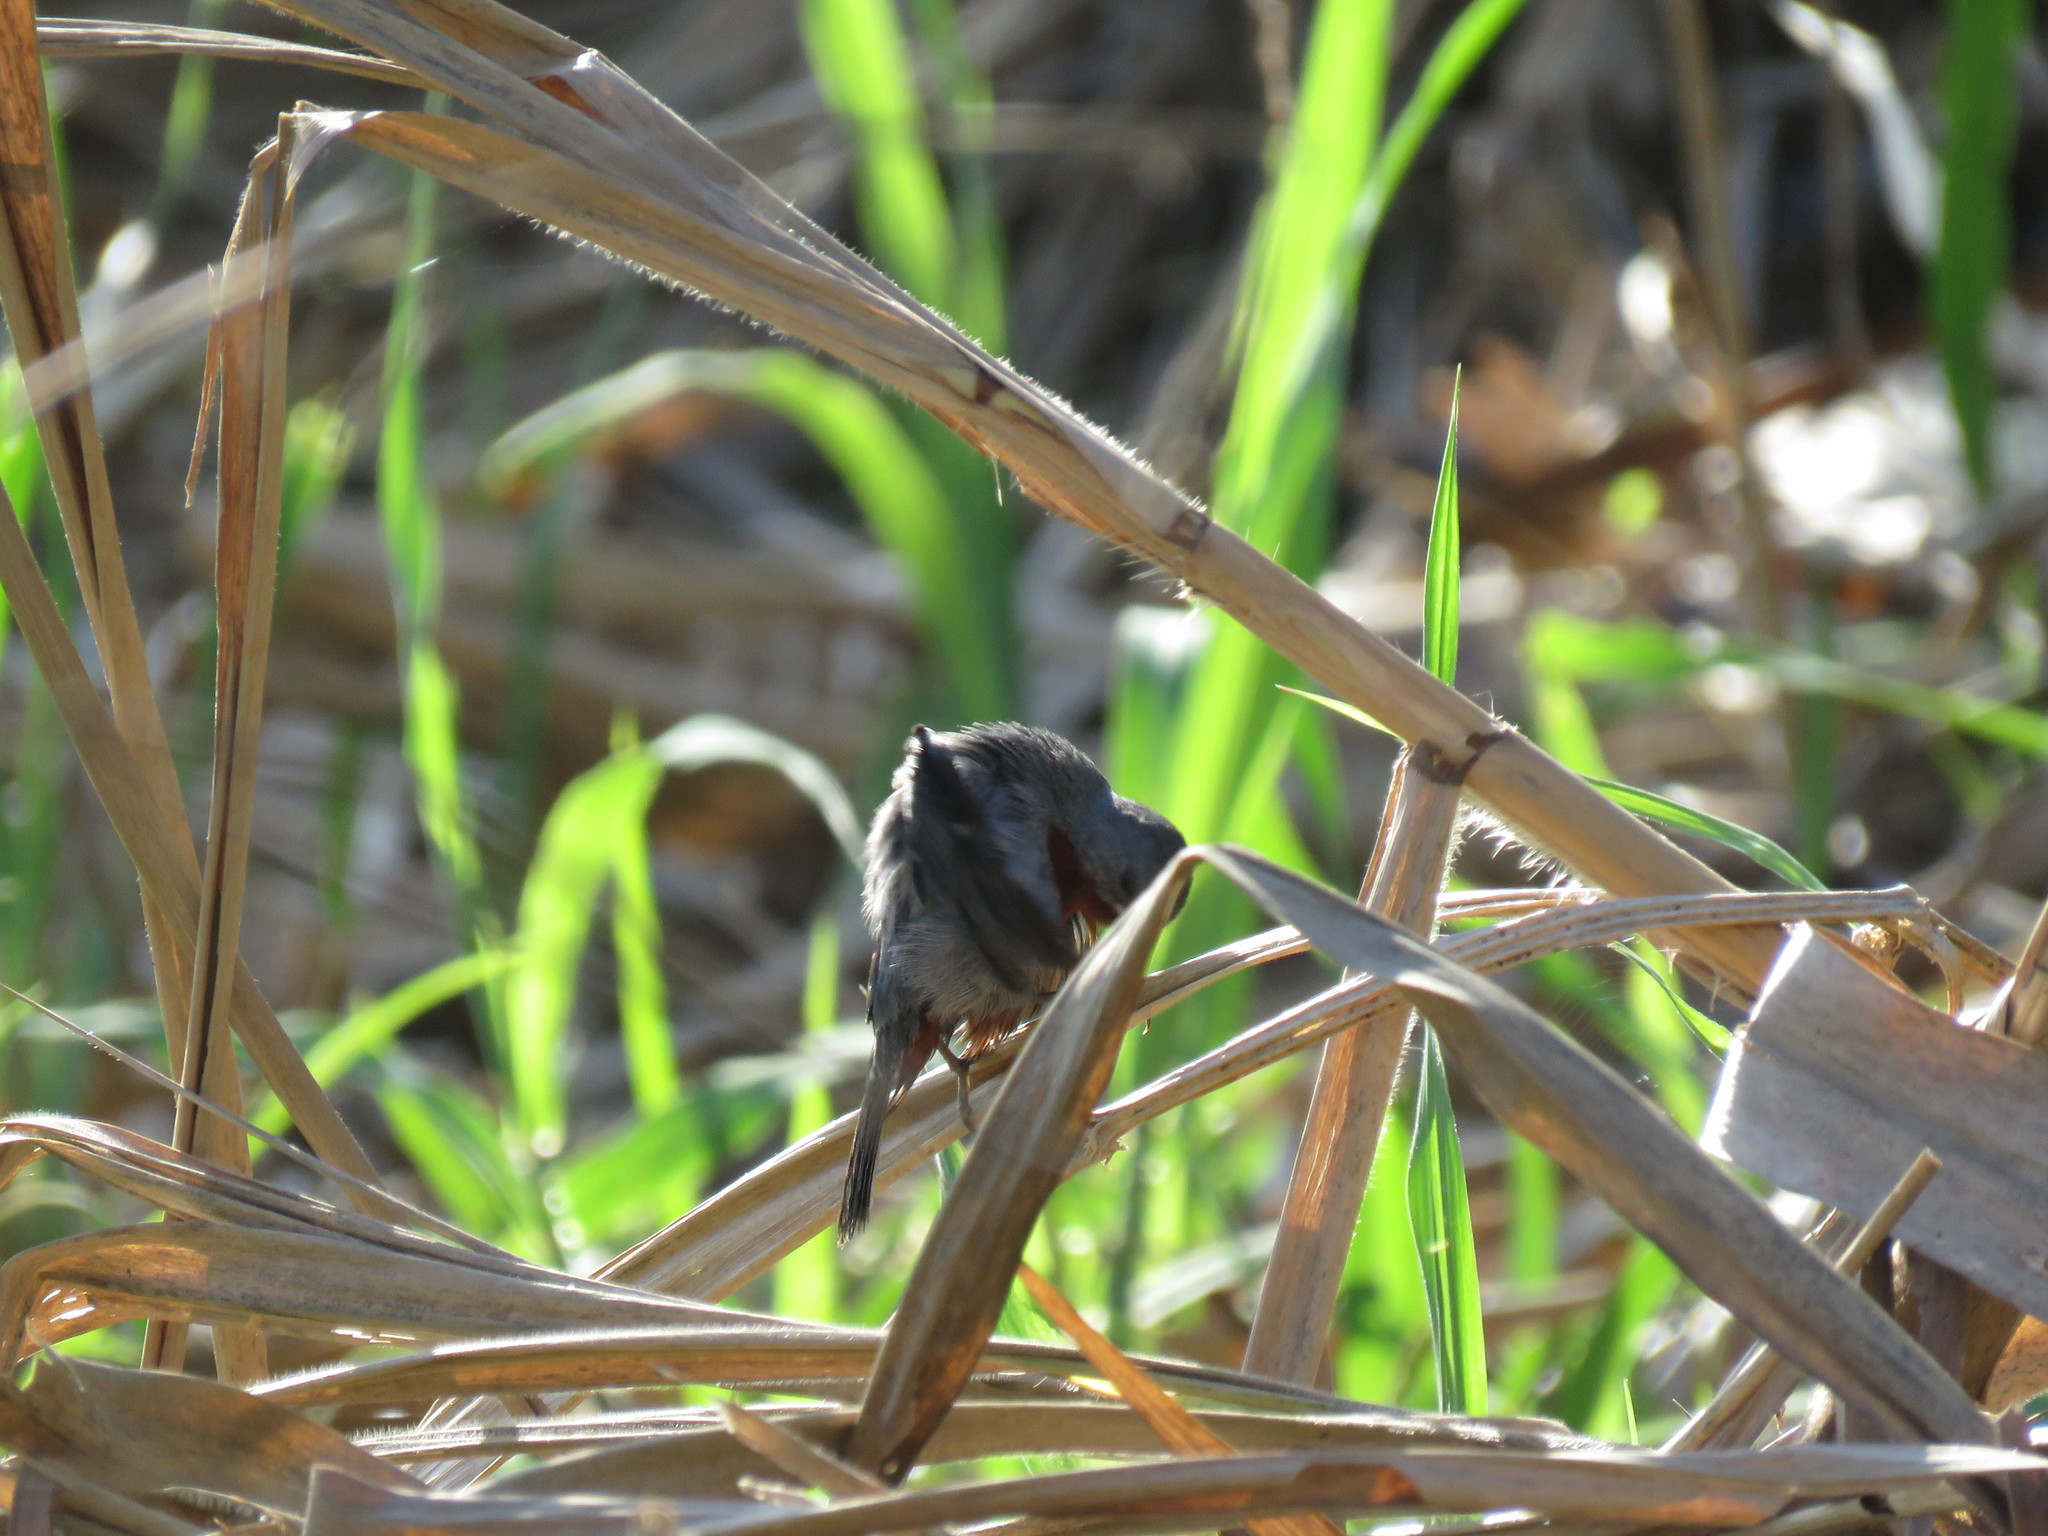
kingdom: Animalia
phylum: Chordata
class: Aves
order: Passeriformes
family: Thraupidae
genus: Sporophila
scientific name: Sporophila castaneiventris
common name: Chestnut-bellied seedeater
